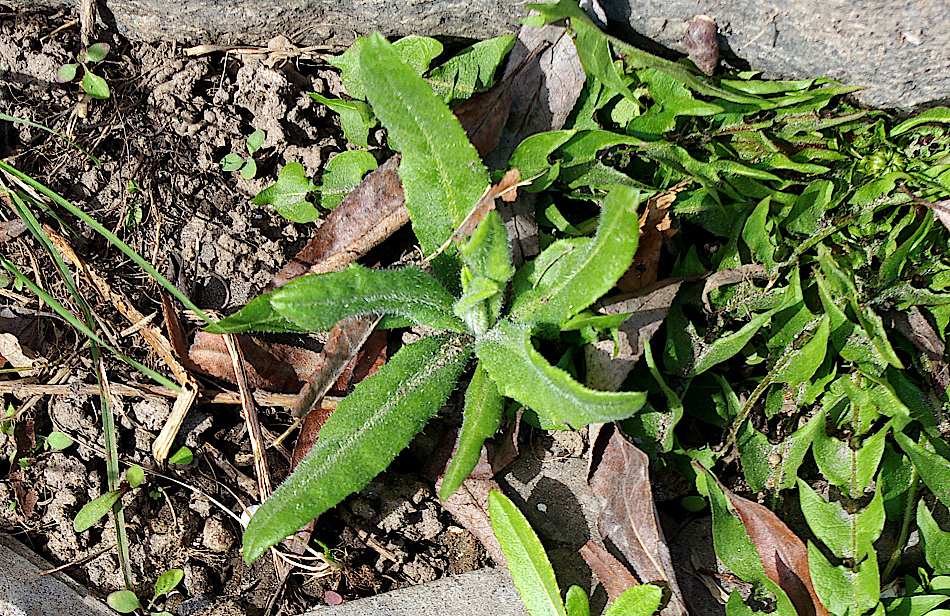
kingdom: Plantae
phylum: Tracheophyta
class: Magnoliopsida
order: Asterales
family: Asteraceae
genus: Cirsium
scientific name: Cirsium arvense
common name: Creeping thistle
